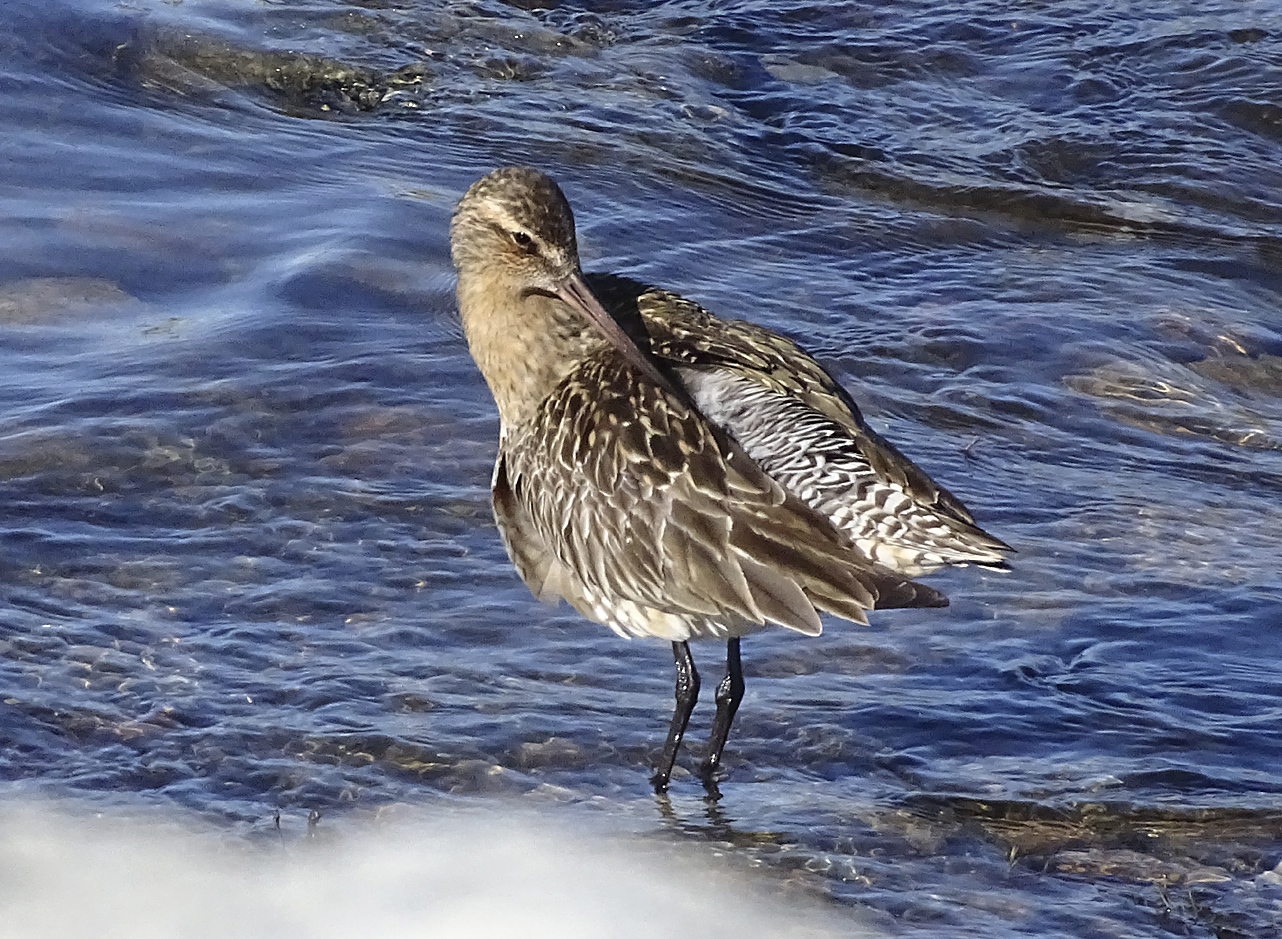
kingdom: Animalia
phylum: Chordata
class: Aves
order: Charadriiformes
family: Scolopacidae
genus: Limosa
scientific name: Limosa lapponica
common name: Bar-tailed godwit
